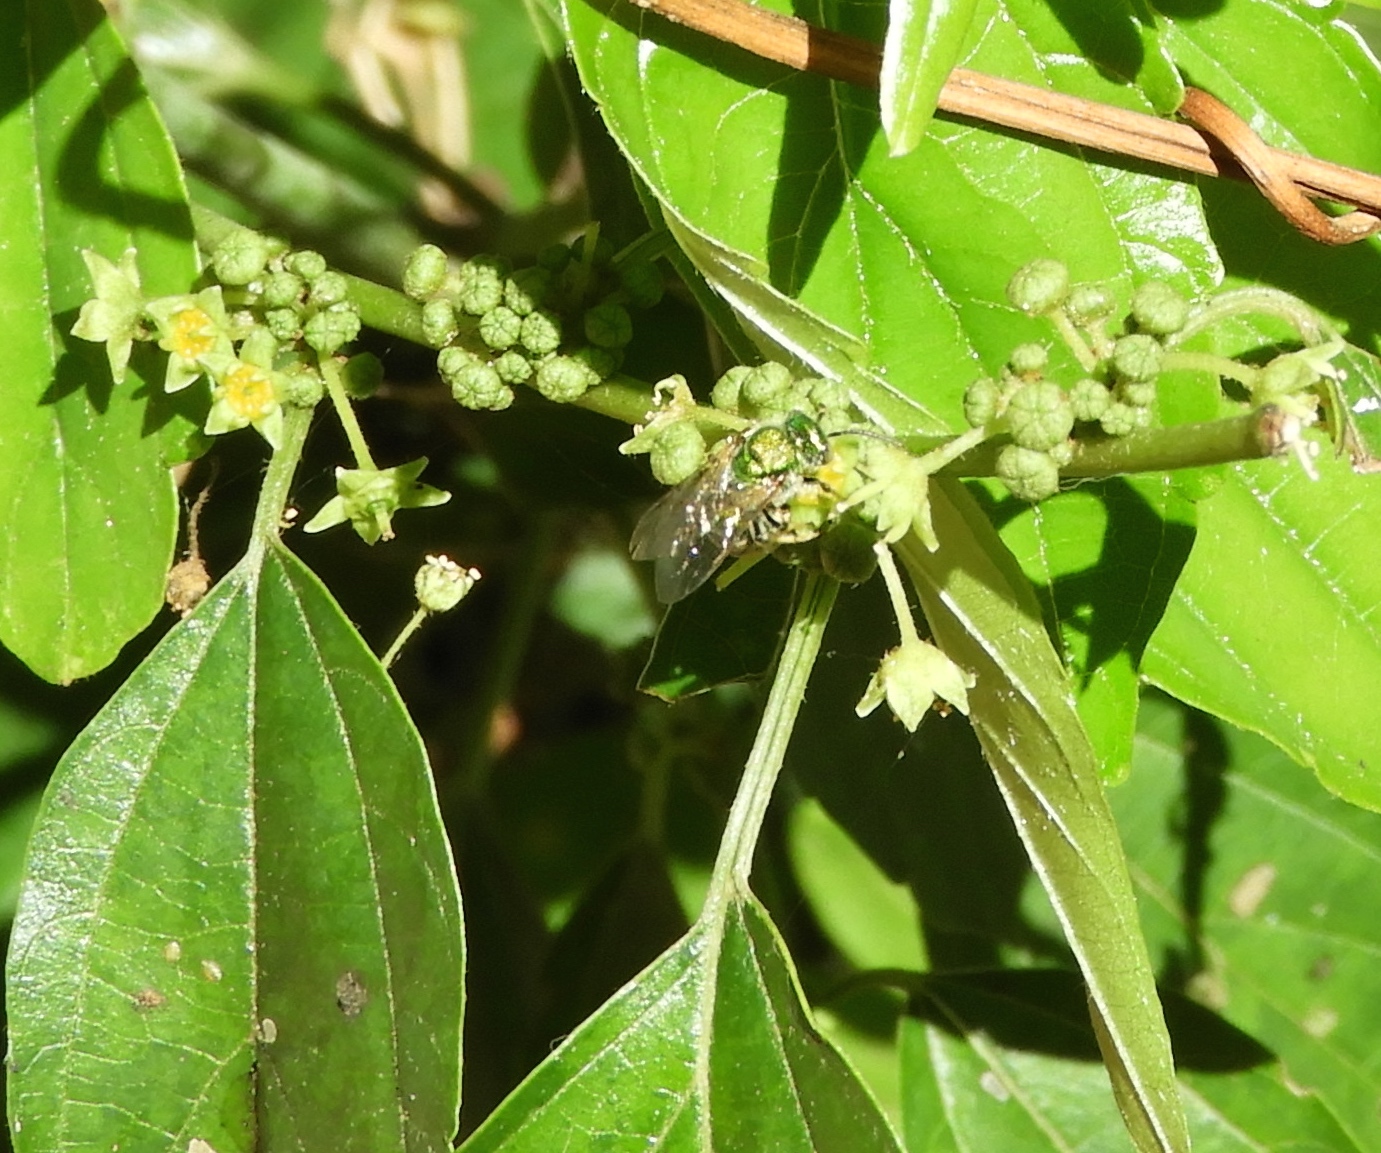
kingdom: Animalia
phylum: Arthropoda
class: Insecta
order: Hymenoptera
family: Halictidae
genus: Augochloropsis
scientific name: Augochloropsis
